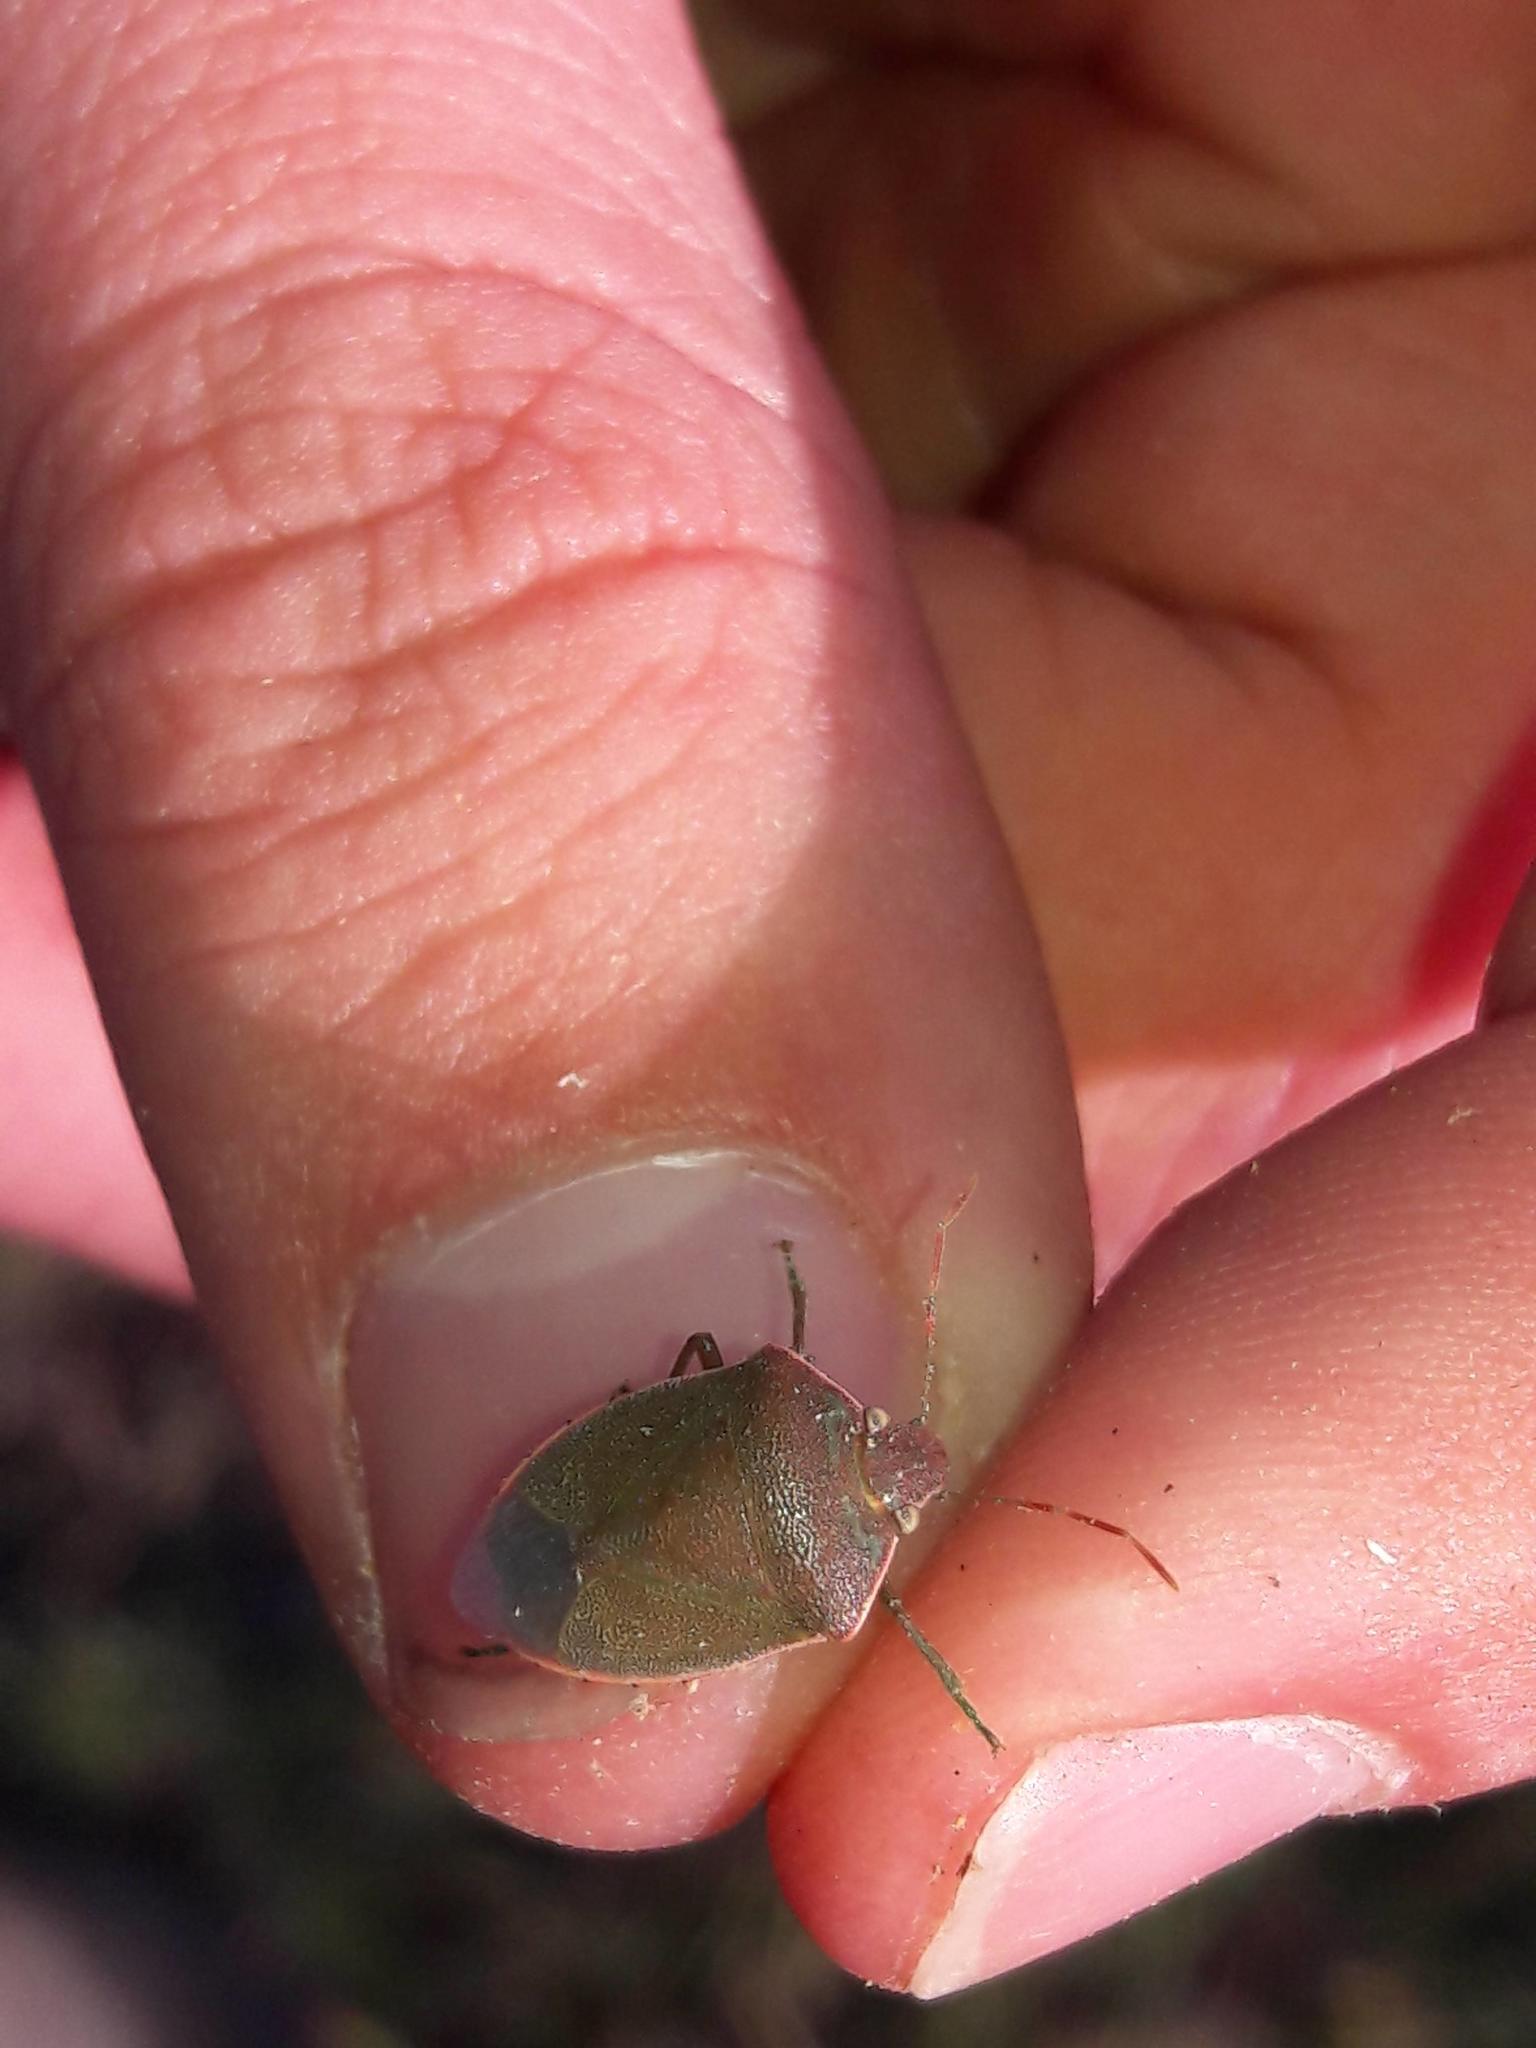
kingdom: Animalia
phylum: Arthropoda
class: Insecta
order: Hemiptera
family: Pentatomidae
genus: Acrosternum
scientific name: Acrosternum heegeri
